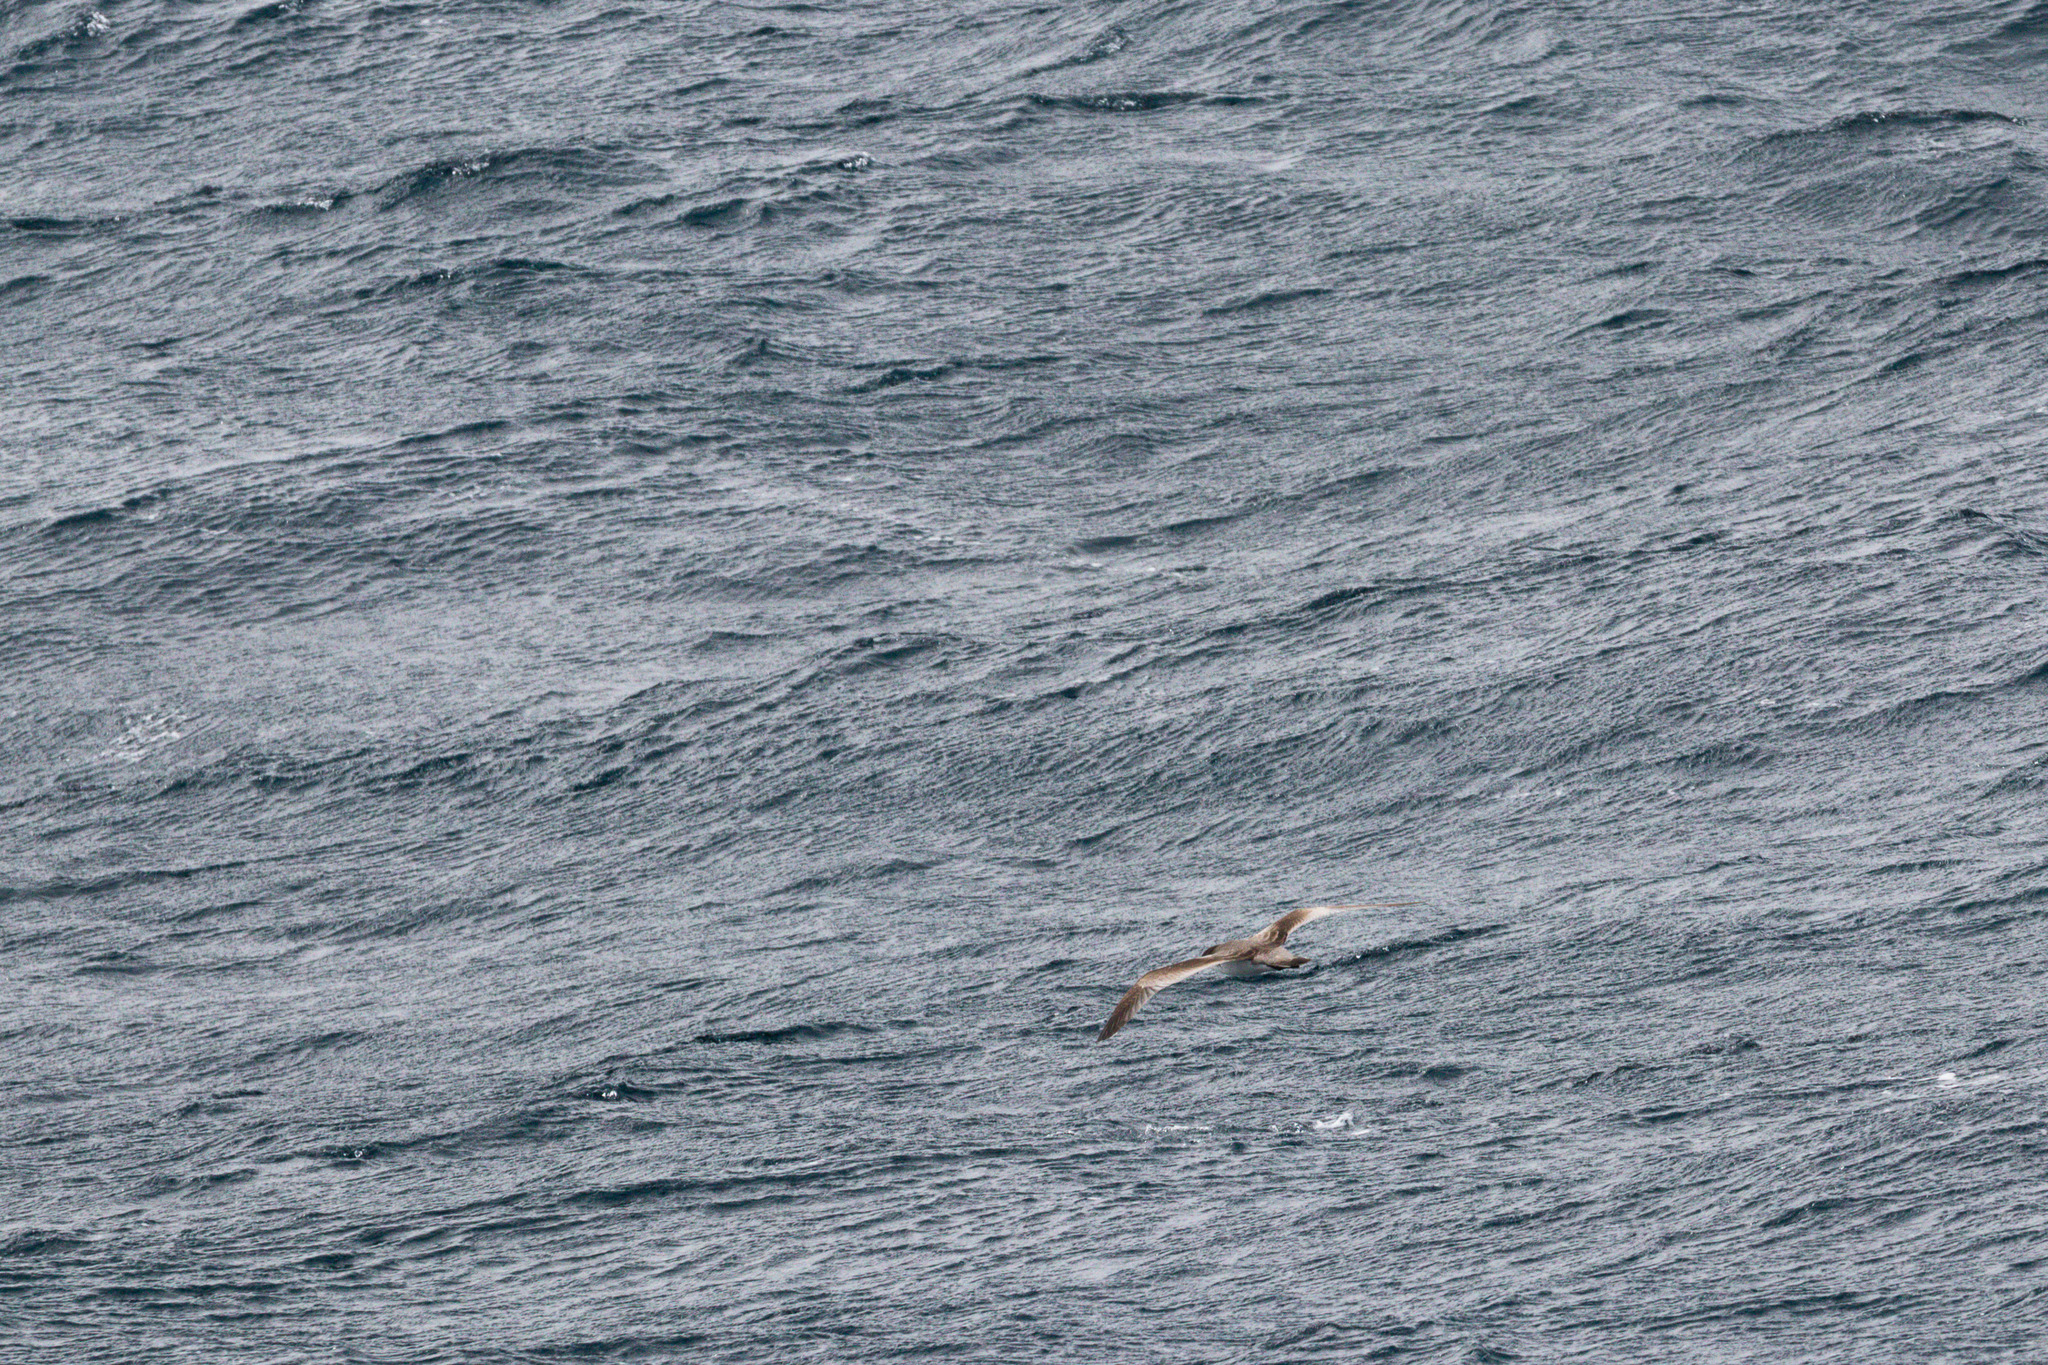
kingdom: Animalia
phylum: Chordata
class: Aves
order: Procellariiformes
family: Procellariidae
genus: Puffinus
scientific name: Puffinus bulleri
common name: Buller's shearwater
